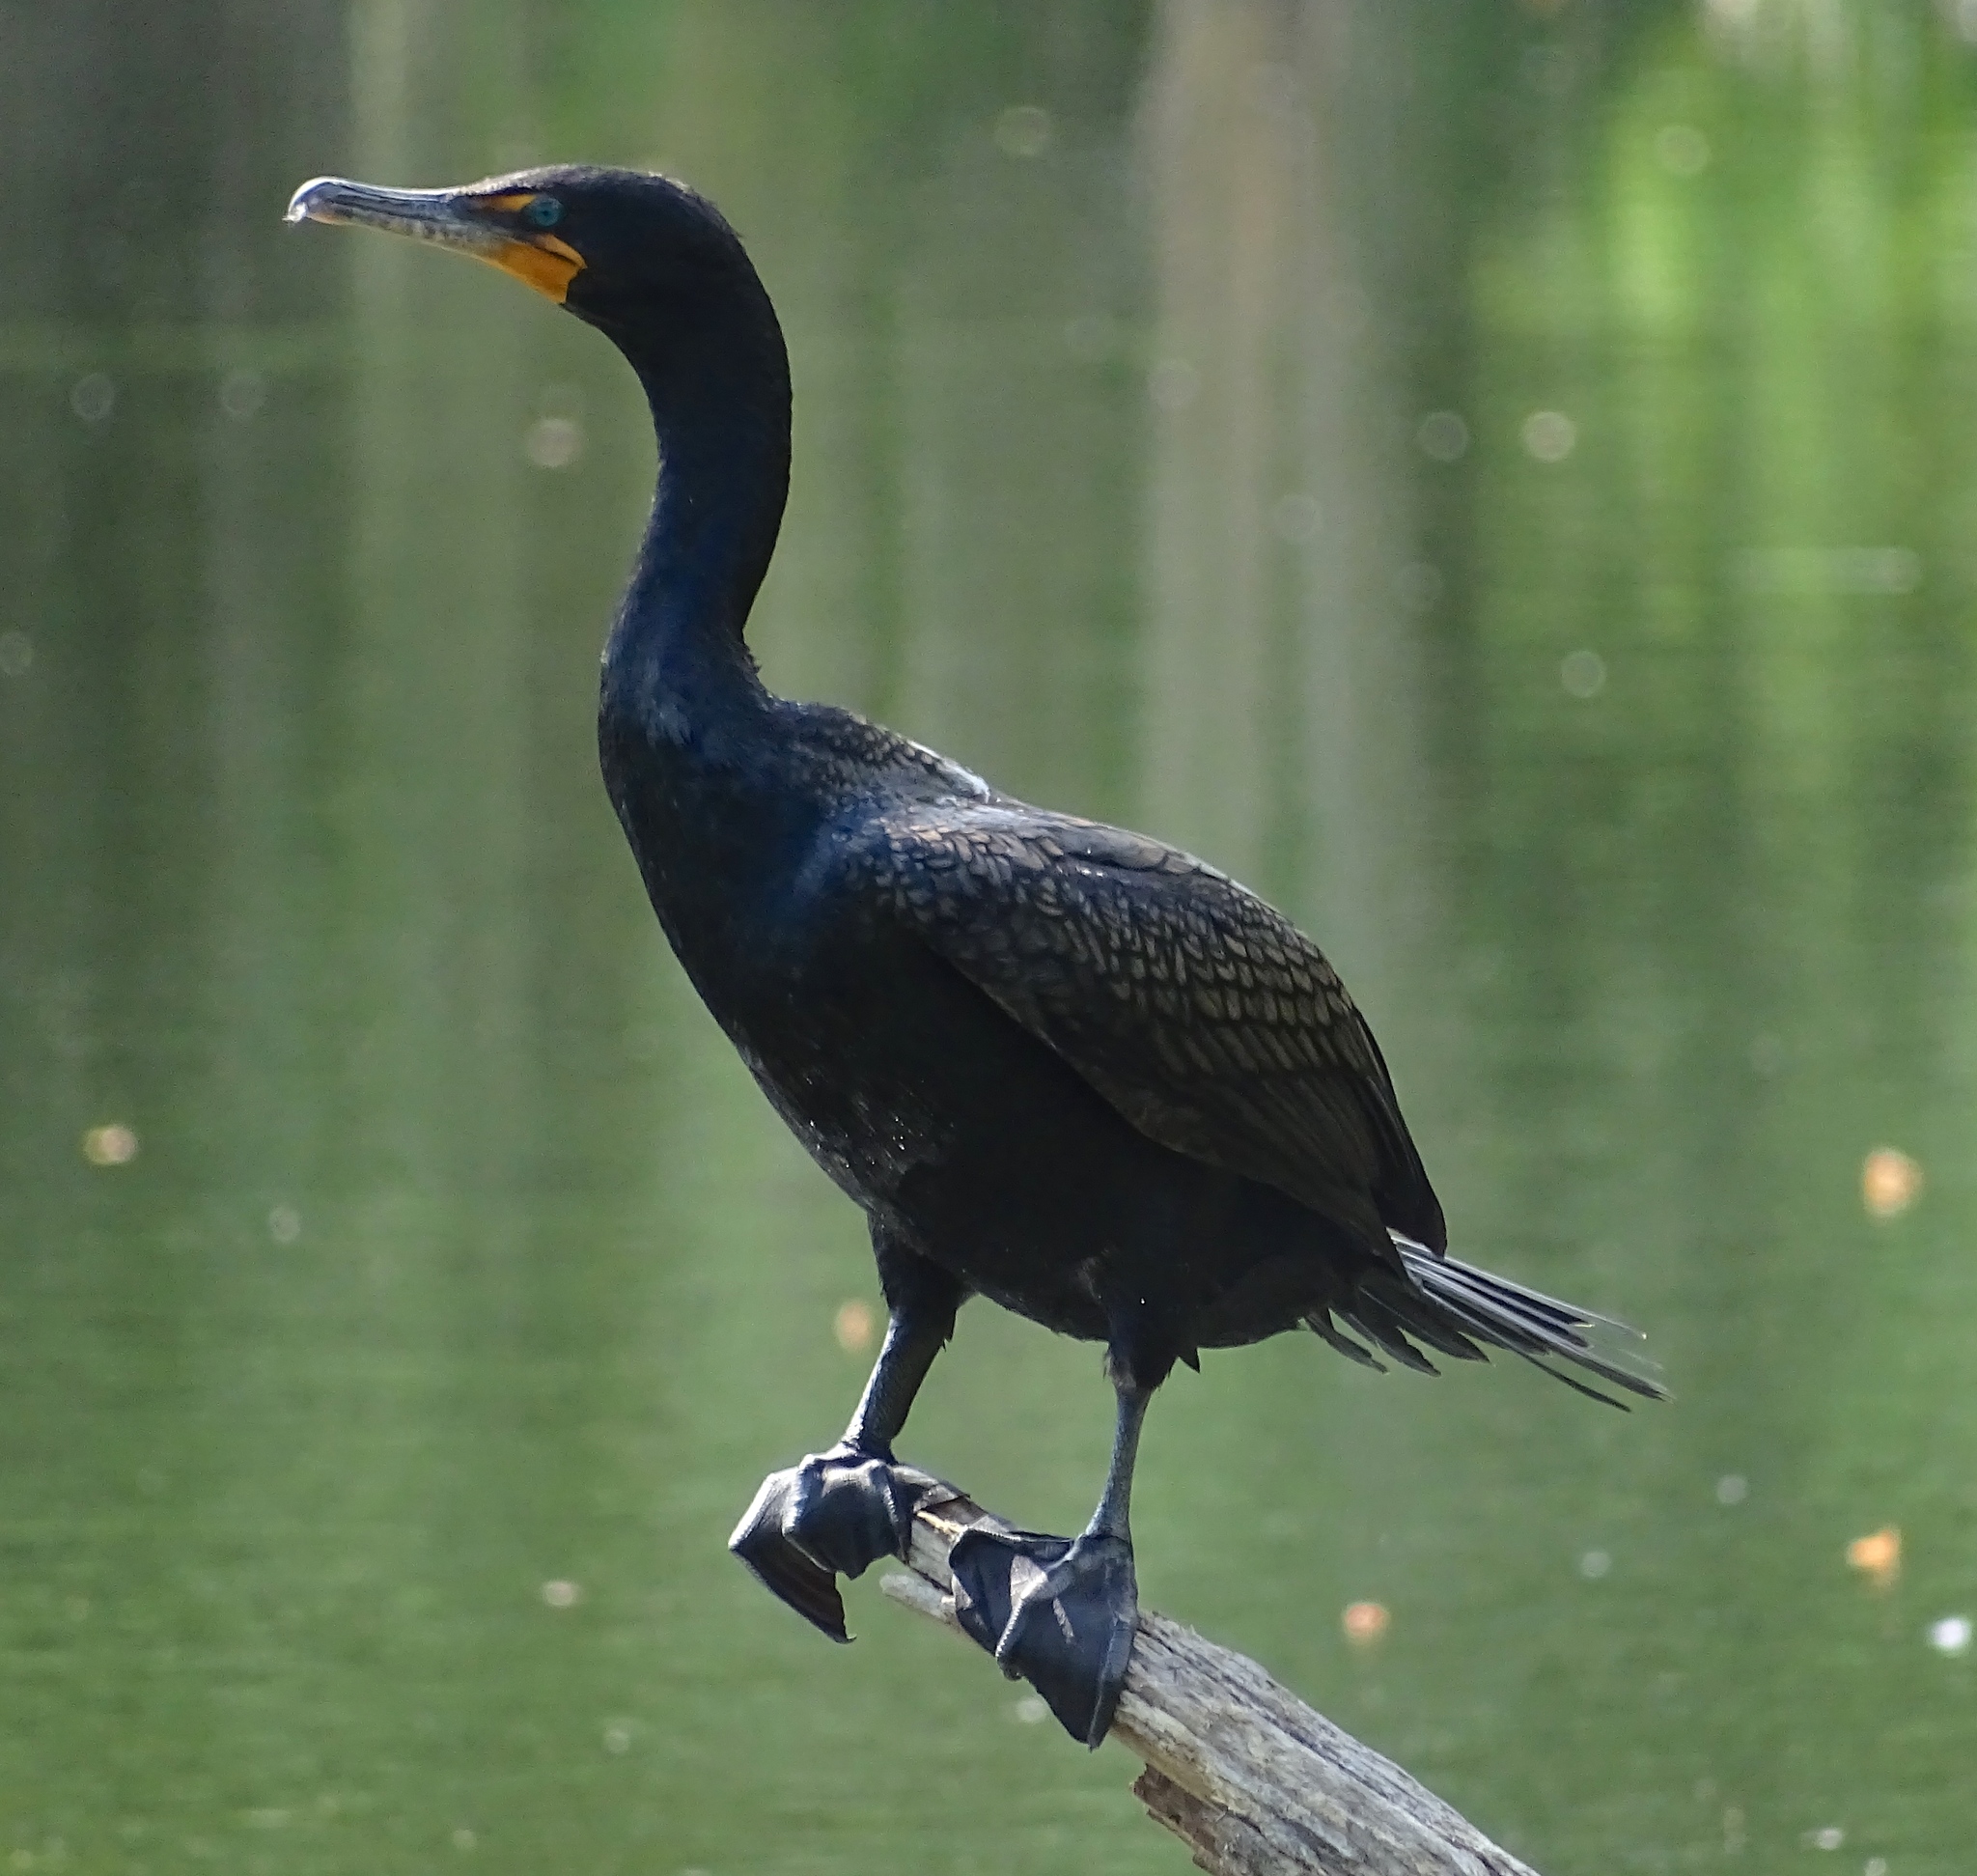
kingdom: Animalia
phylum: Chordata
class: Aves
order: Suliformes
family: Phalacrocoracidae
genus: Phalacrocorax
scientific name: Phalacrocorax auritus
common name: Double-crested cormorant
